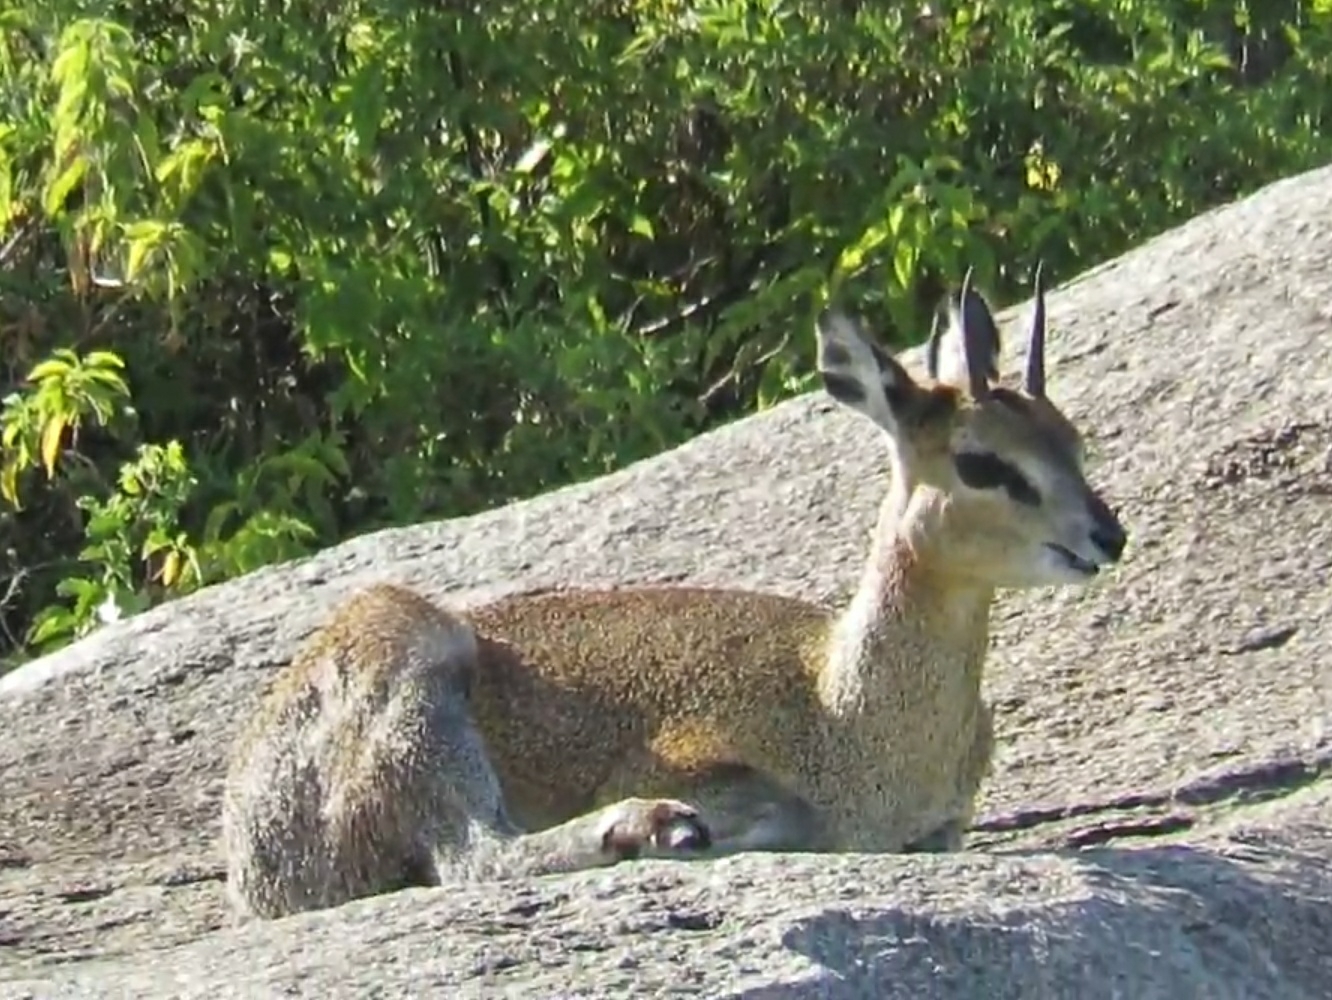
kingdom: Animalia
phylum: Chordata
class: Mammalia
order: Artiodactyla
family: Bovidae
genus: Oreotragus
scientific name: Oreotragus oreotragus
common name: Klipspringer
